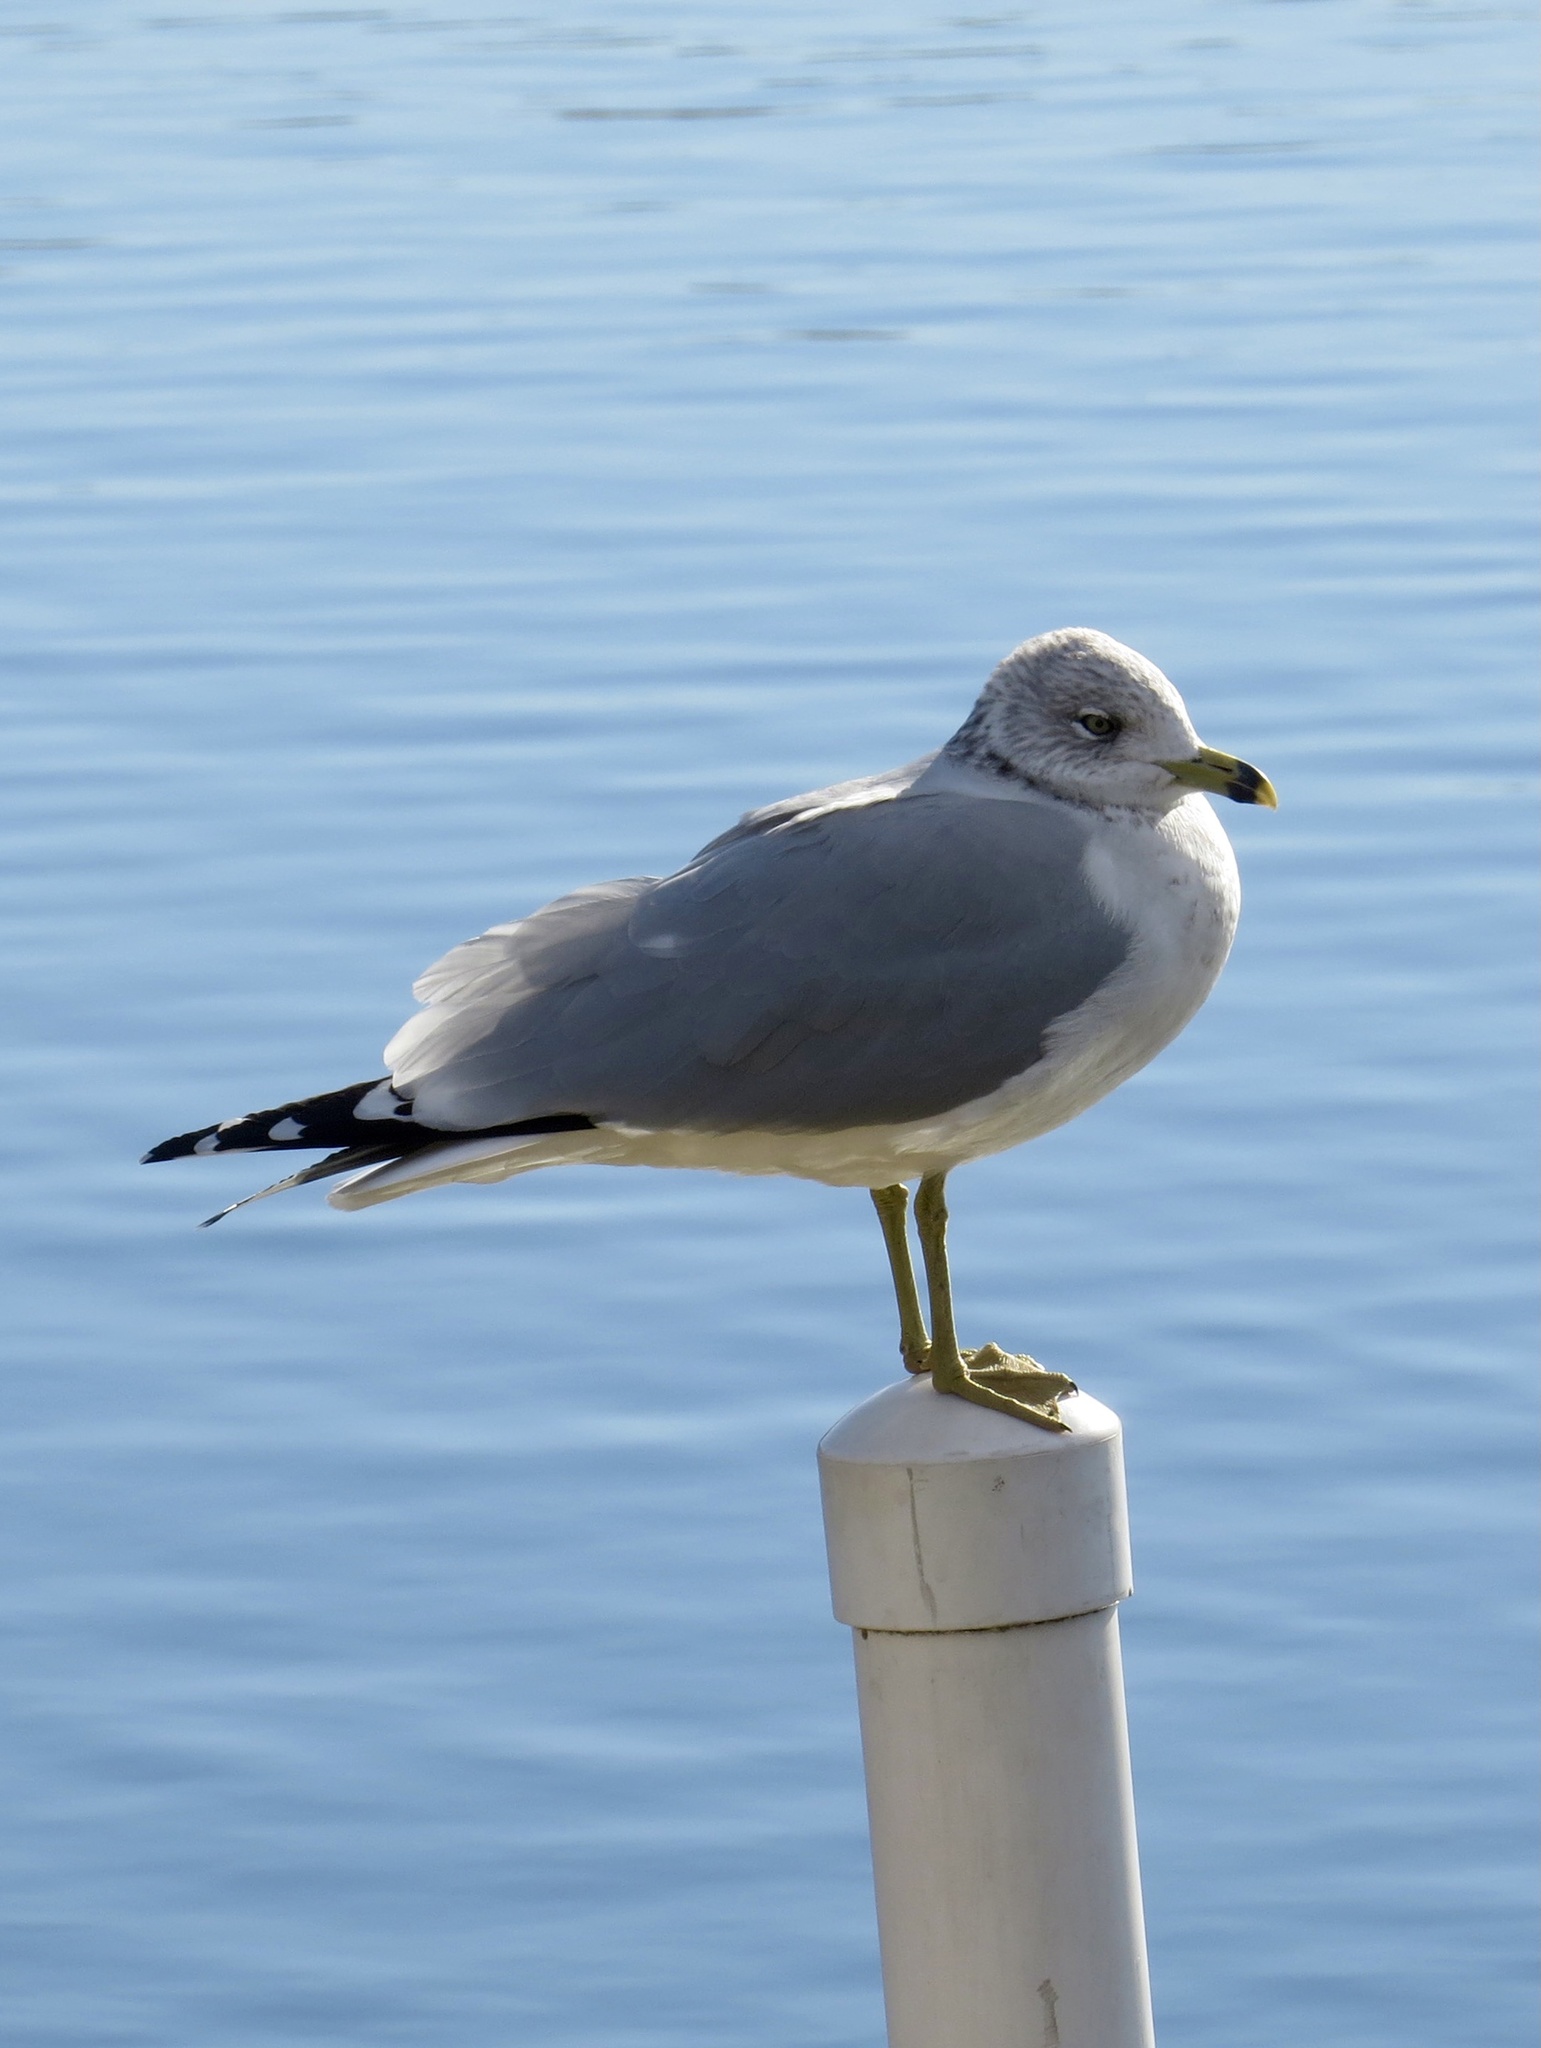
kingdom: Animalia
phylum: Chordata
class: Aves
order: Charadriiformes
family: Laridae
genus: Larus
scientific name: Larus delawarensis
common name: Ring-billed gull
